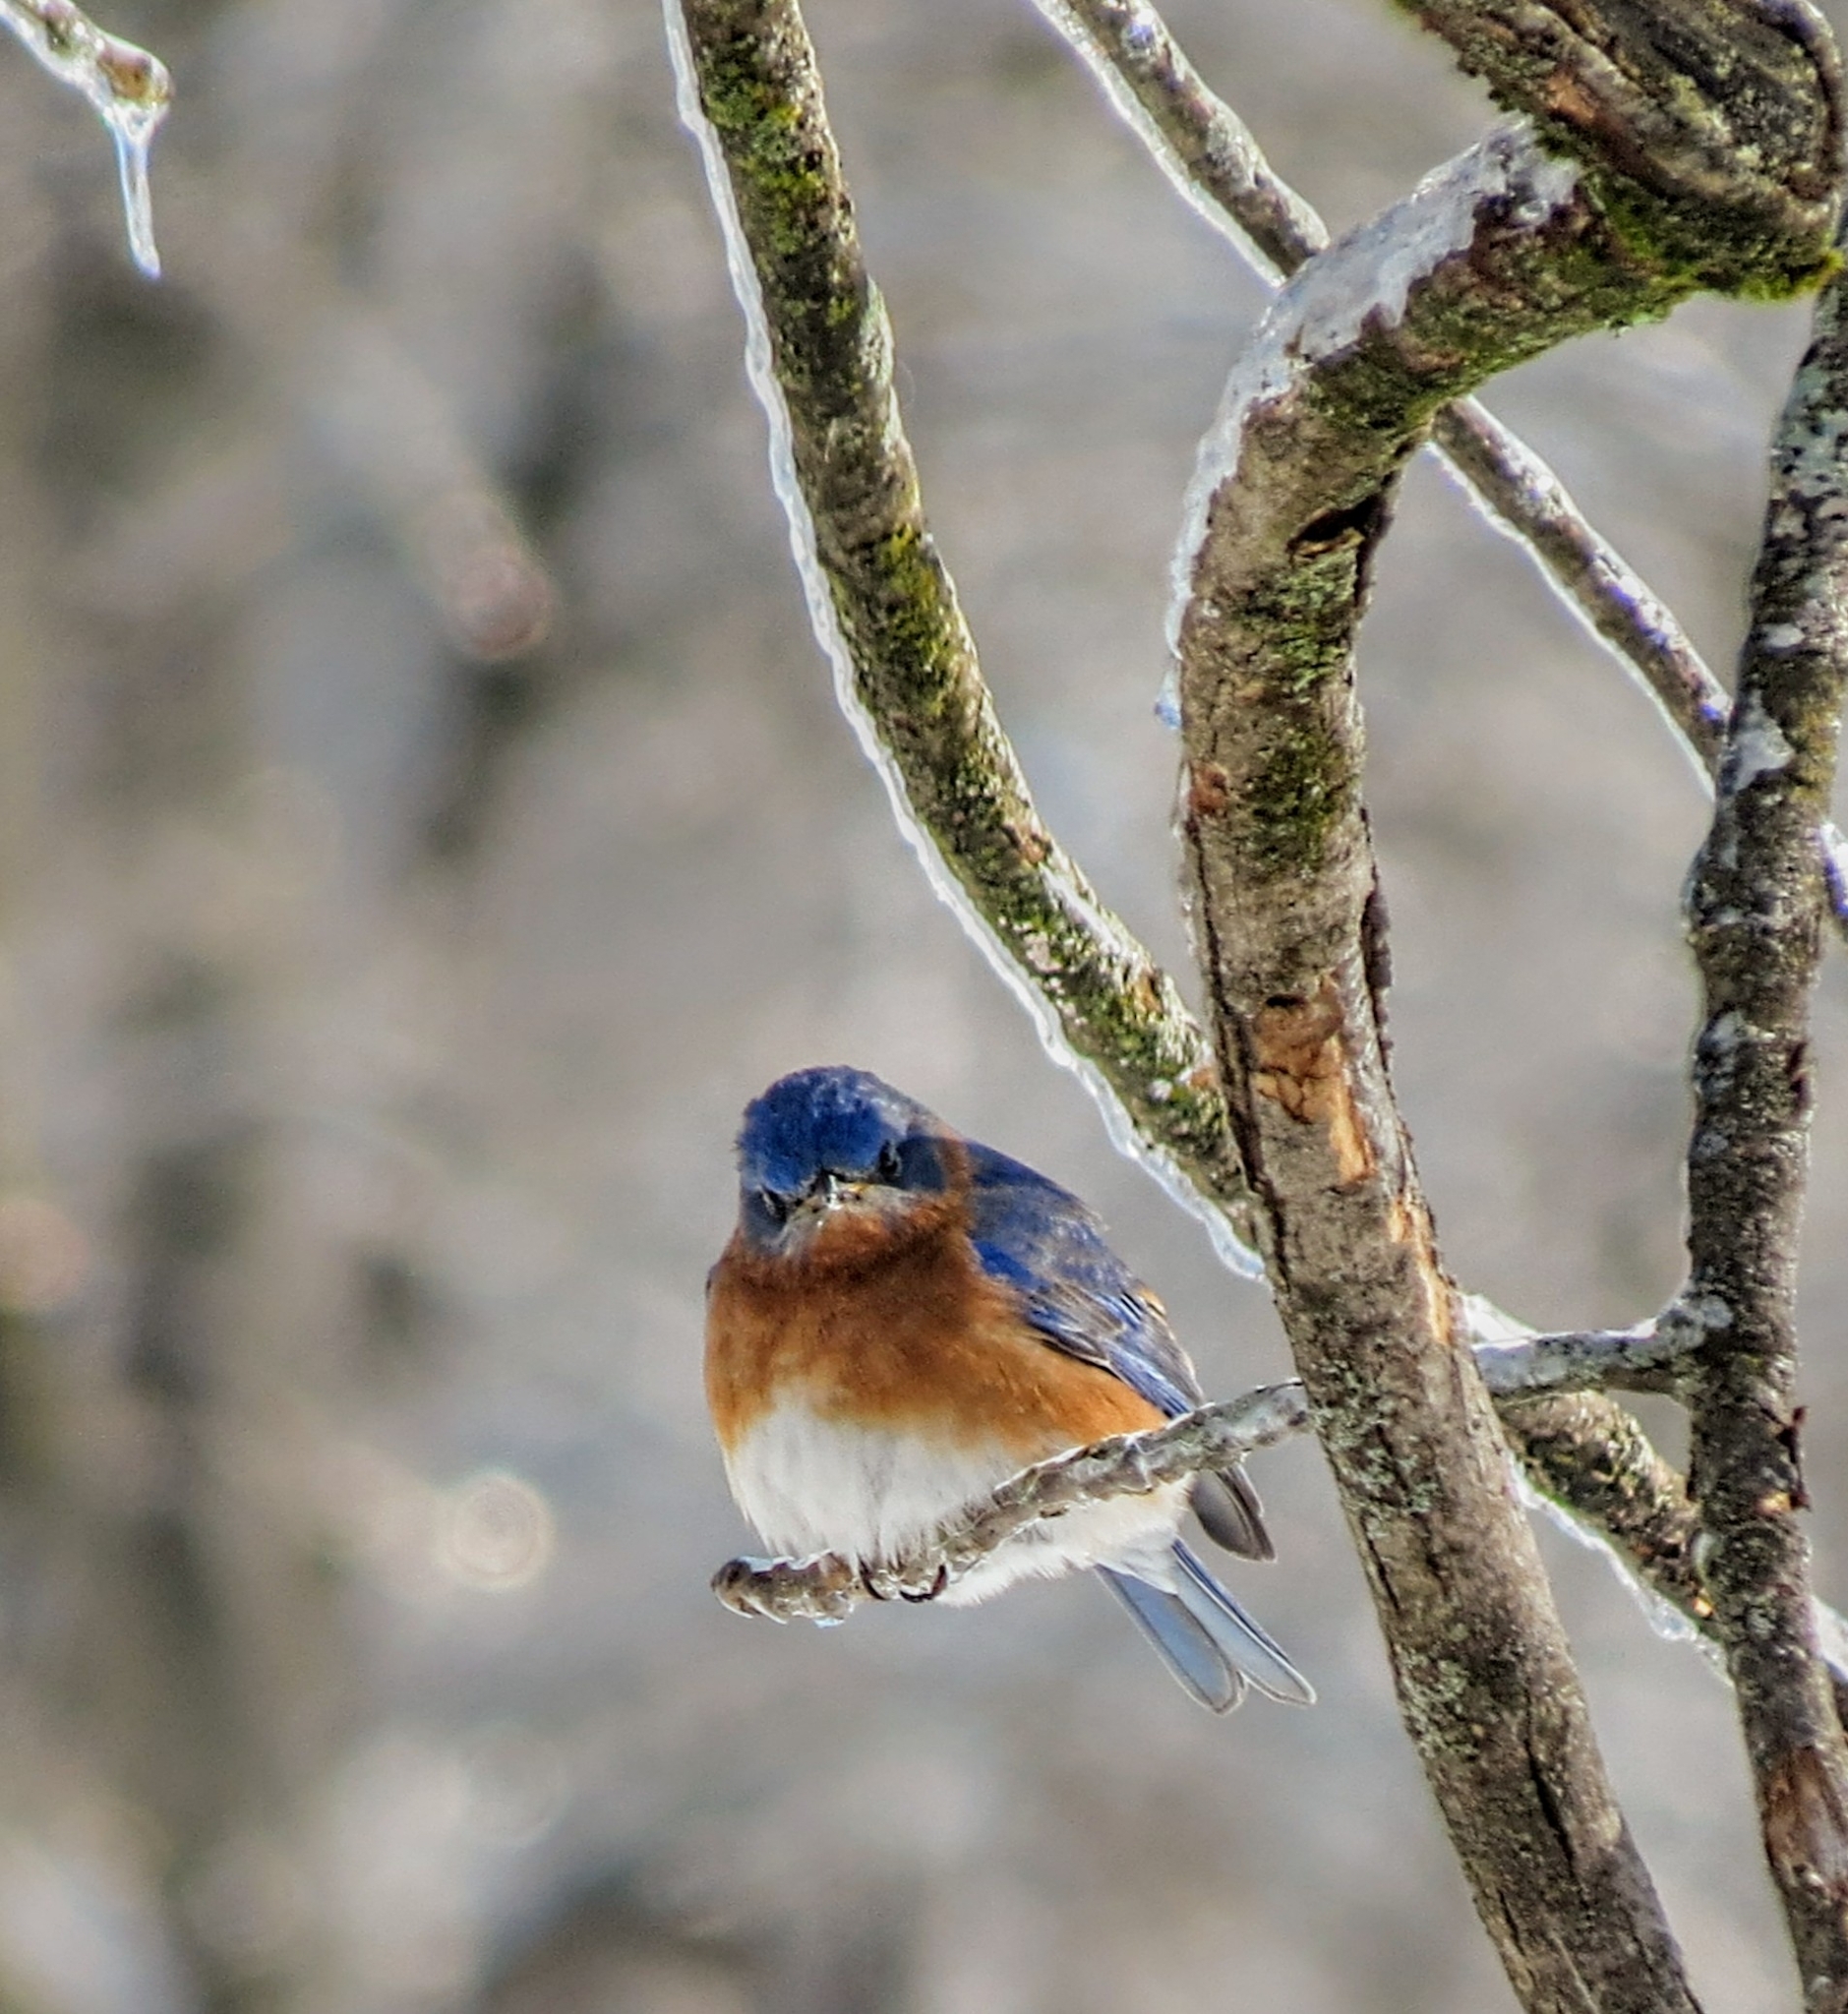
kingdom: Animalia
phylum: Chordata
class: Aves
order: Passeriformes
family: Turdidae
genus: Sialia
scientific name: Sialia sialis
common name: Eastern bluebird
